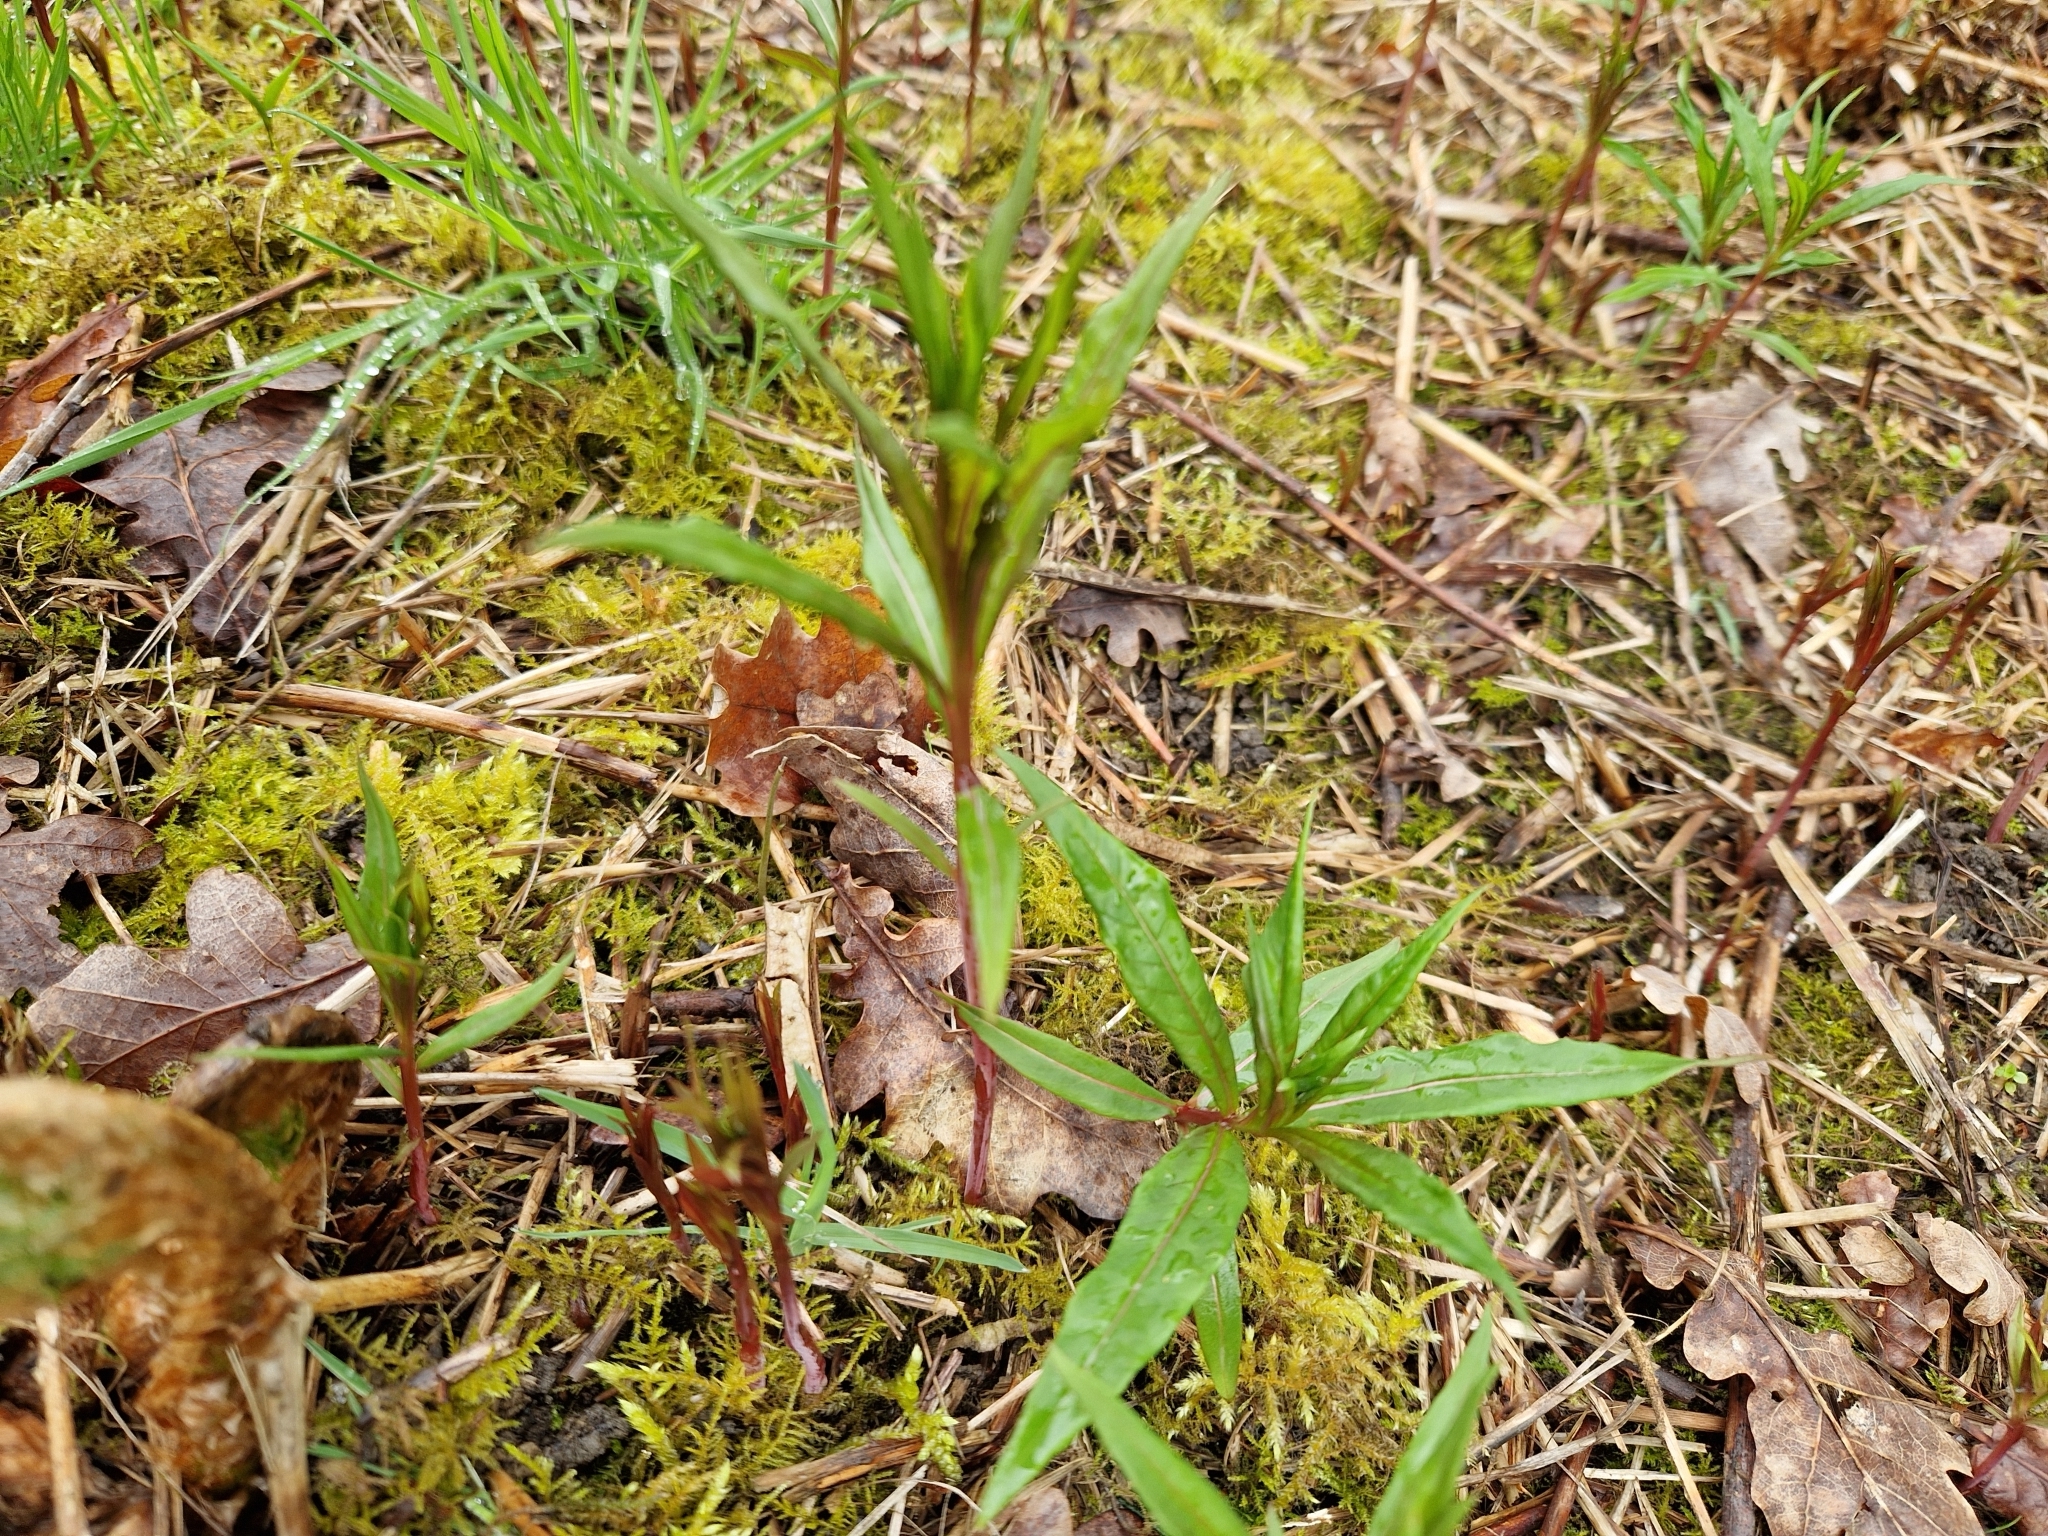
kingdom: Plantae
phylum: Tracheophyta
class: Magnoliopsida
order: Myrtales
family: Onagraceae
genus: Chamaenerion
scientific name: Chamaenerion angustifolium
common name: Fireweed
